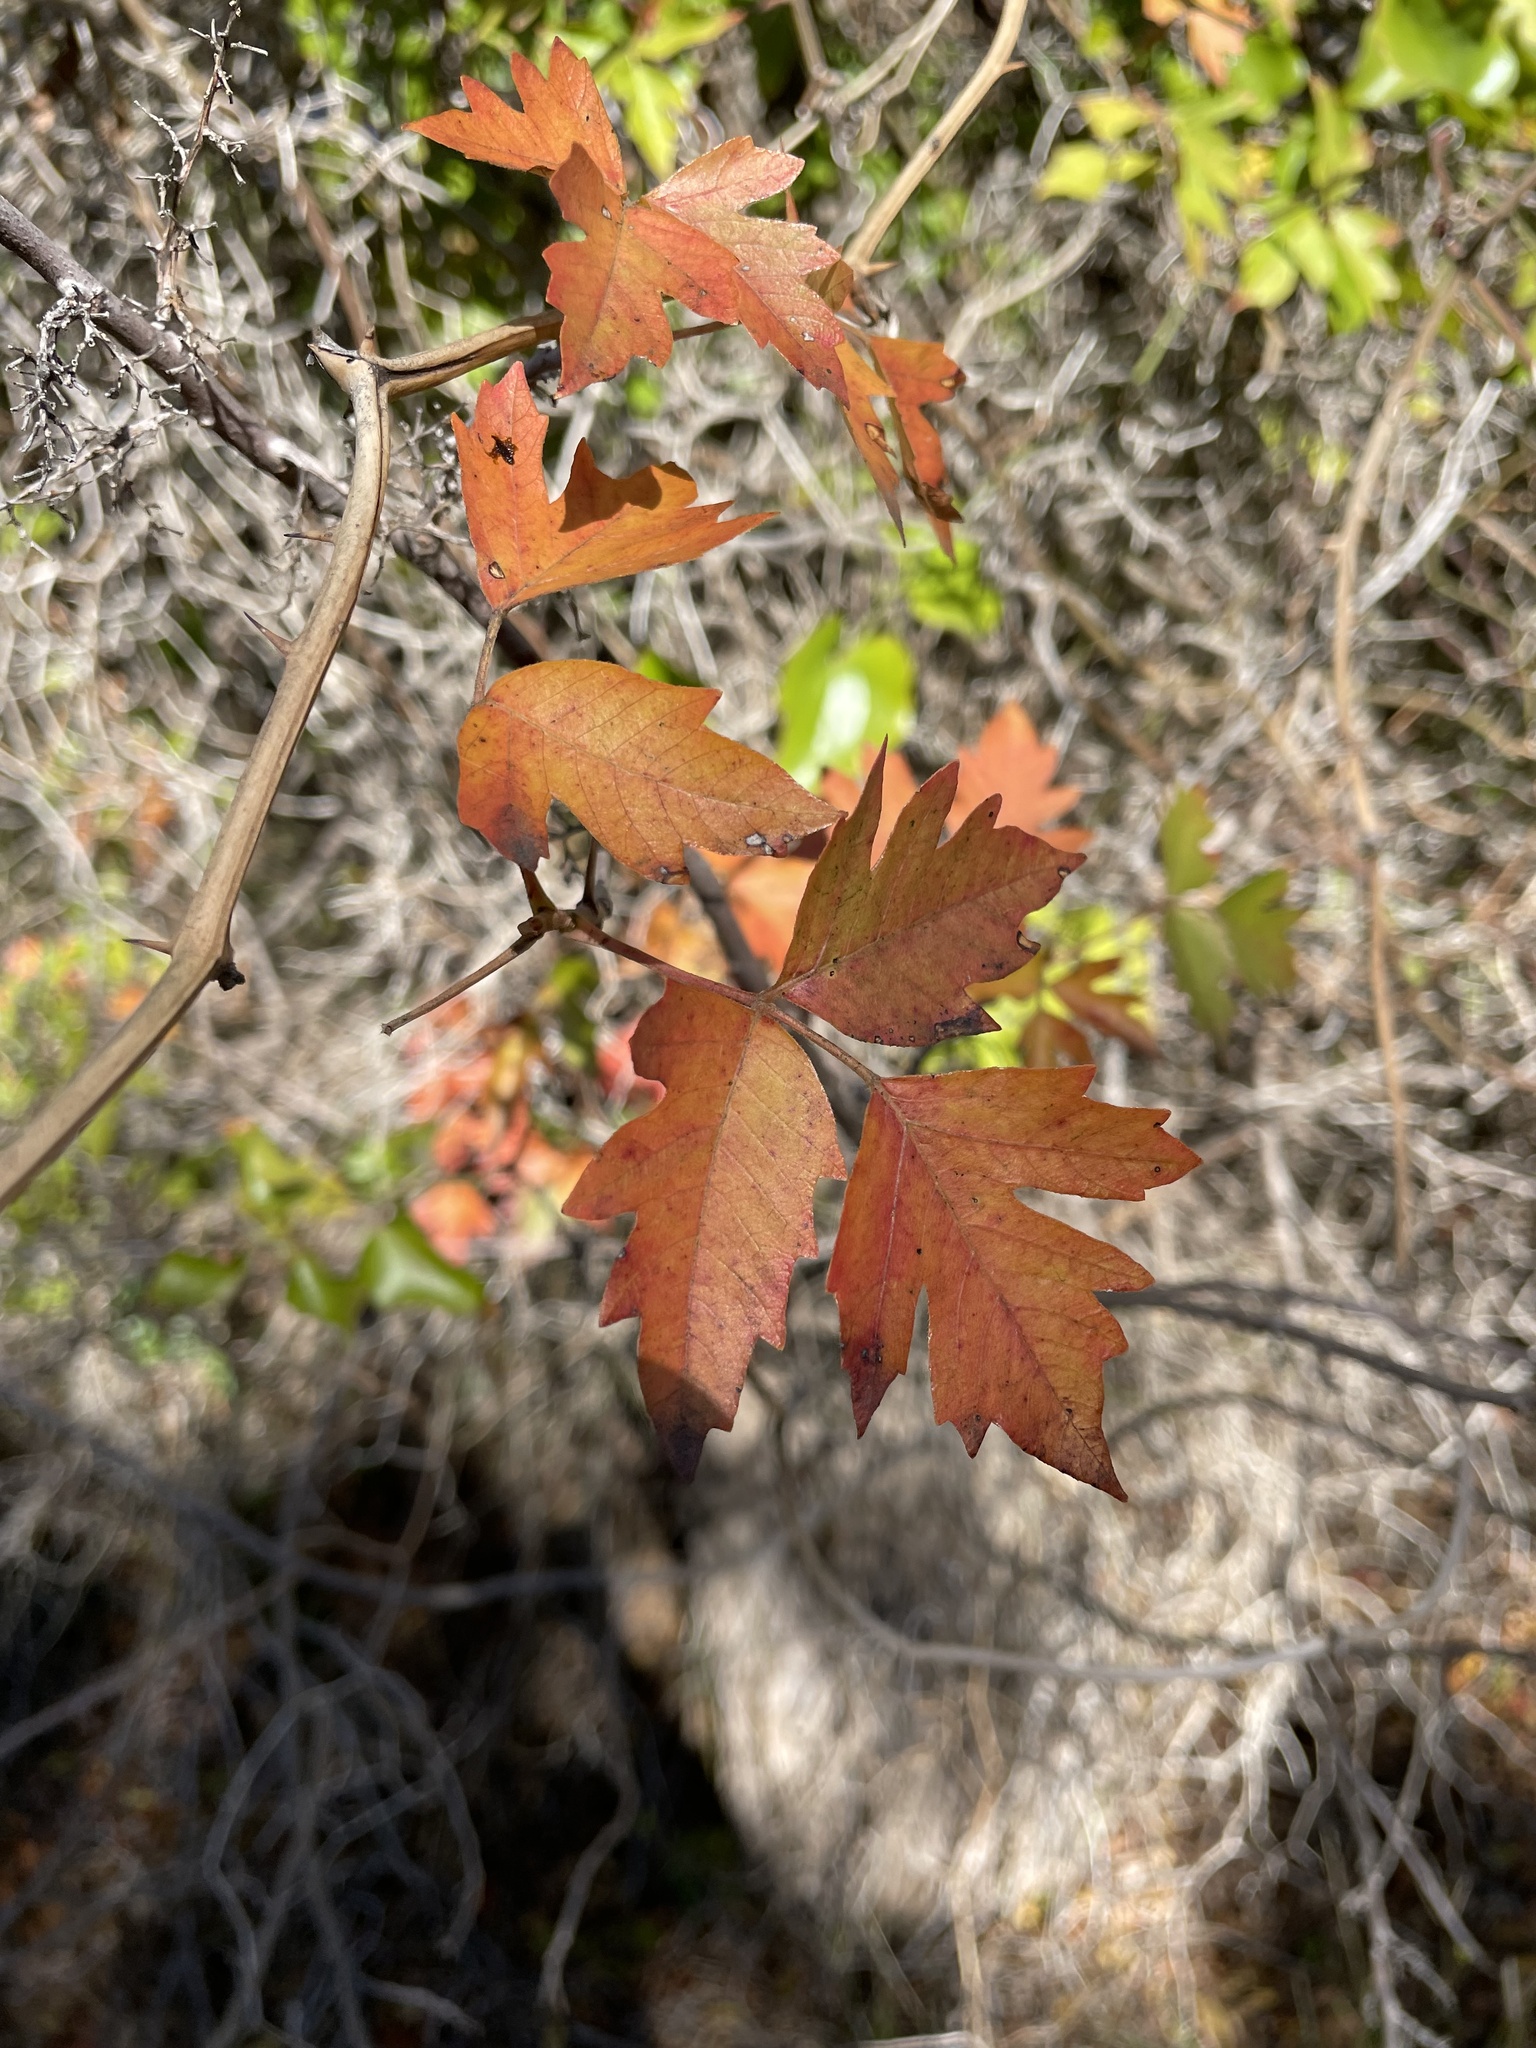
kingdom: Plantae
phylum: Tracheophyta
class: Magnoliopsida
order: Sapindales
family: Anacardiaceae
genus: Toxicodendron
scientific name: Toxicodendron radicans
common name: Poison ivy
